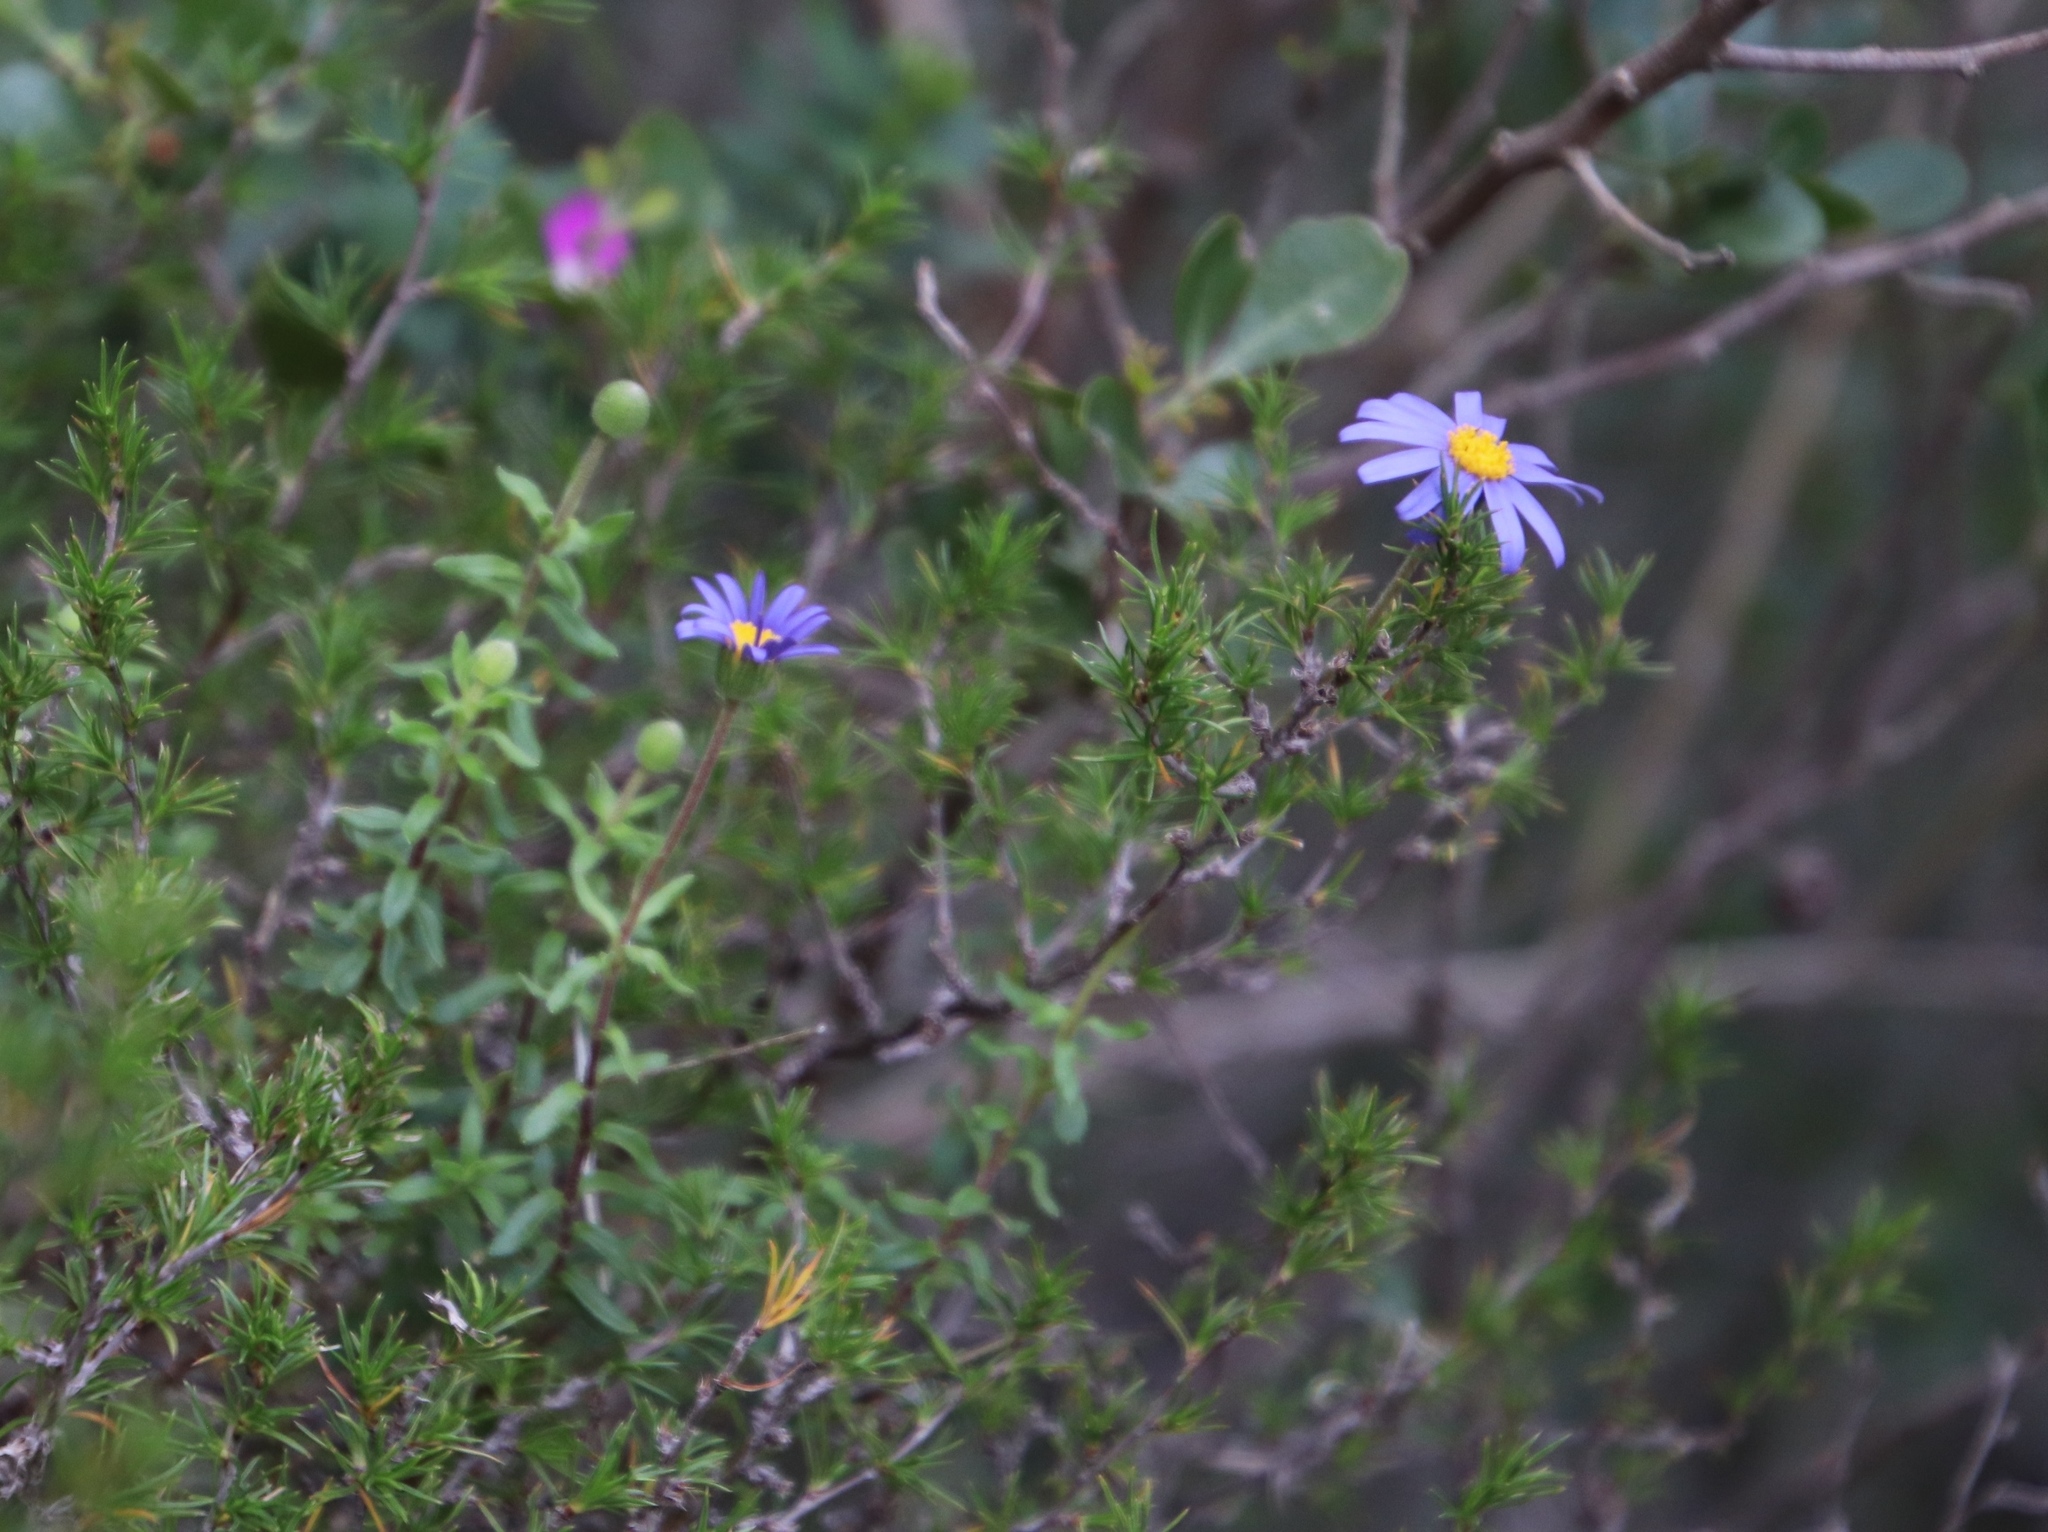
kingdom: Plantae
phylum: Tracheophyta
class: Magnoliopsida
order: Asterales
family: Asteraceae
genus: Felicia
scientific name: Felicia aethiopica
